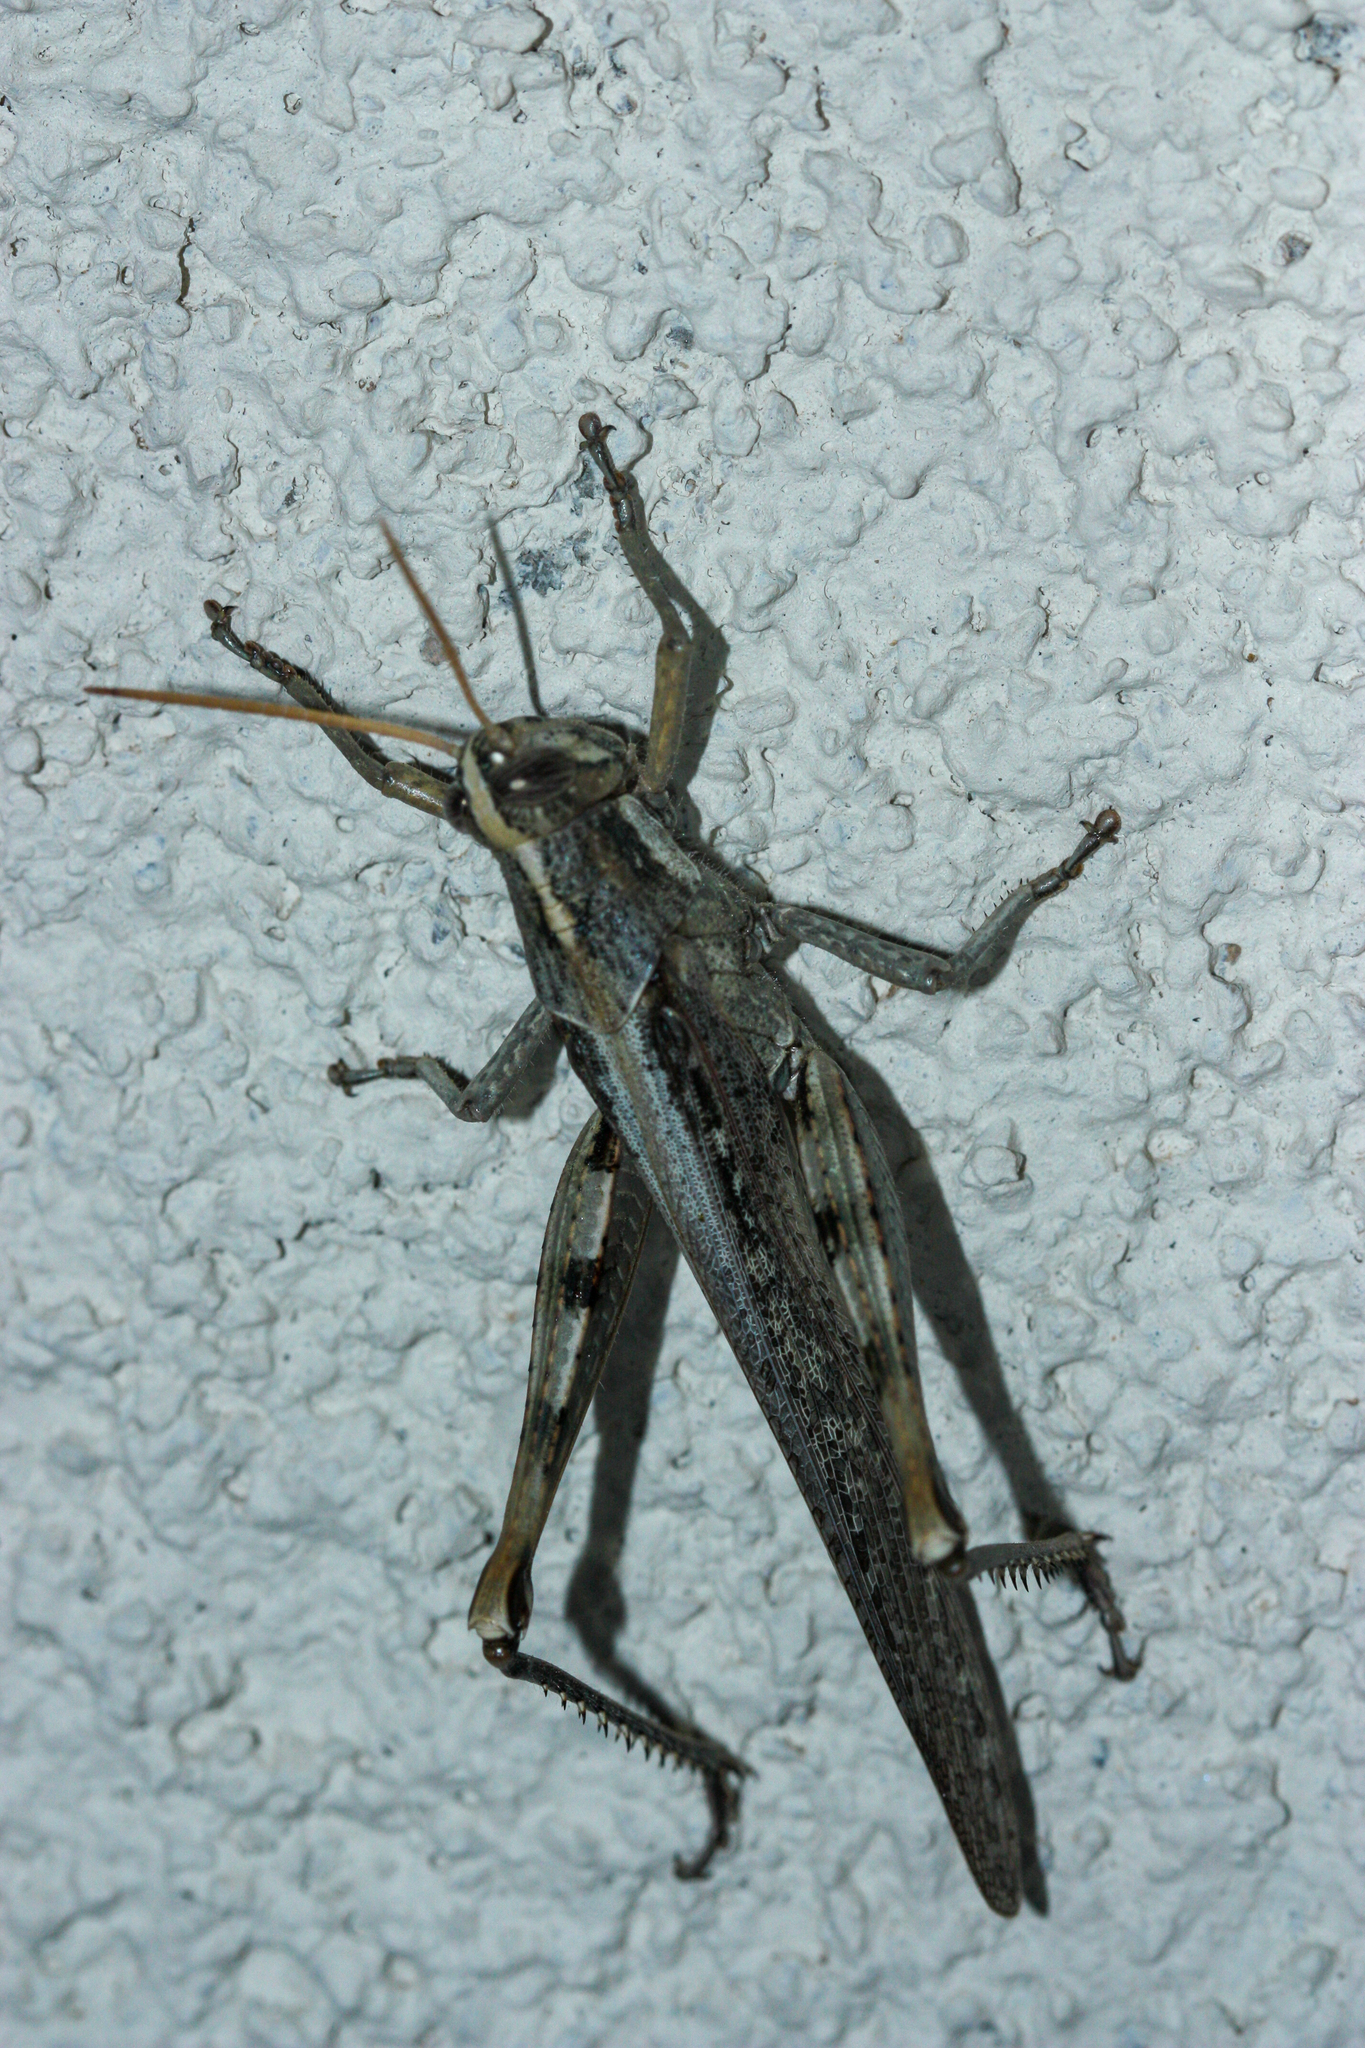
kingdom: Animalia
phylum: Arthropoda
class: Insecta
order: Orthoptera
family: Acrididae
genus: Schistocerca
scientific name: Schistocerca nitens
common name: Vagrant grasshopper
